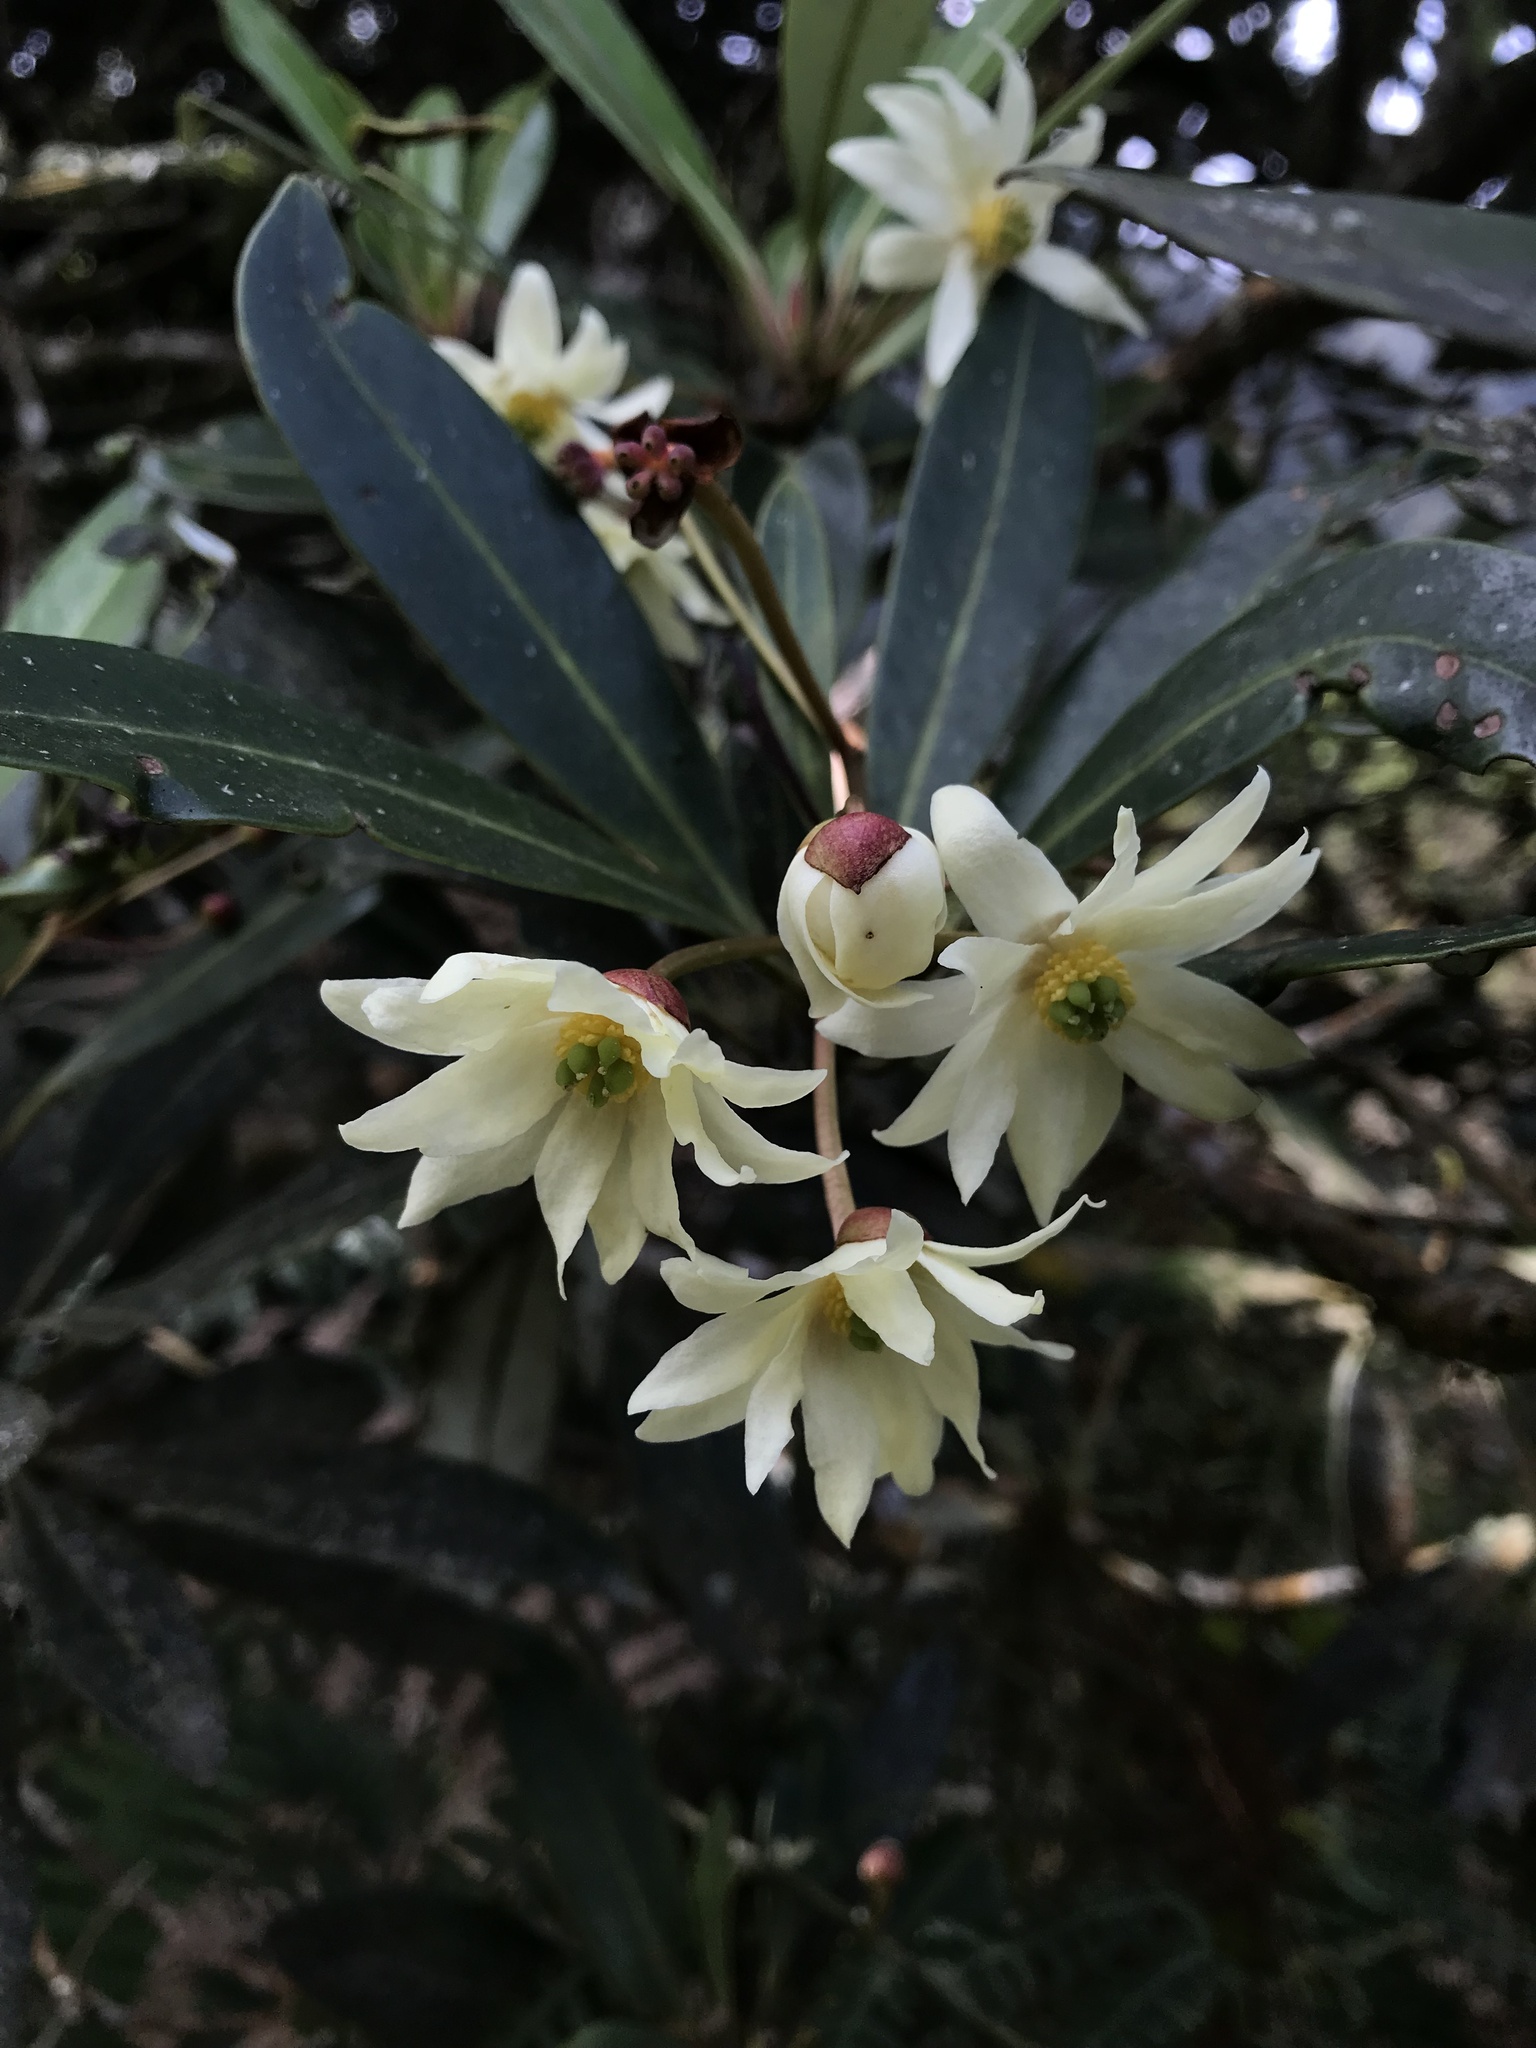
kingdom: Plantae
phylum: Tracheophyta
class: Magnoliopsida
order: Canellales
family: Winteraceae
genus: Drimys
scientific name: Drimys granadensis
